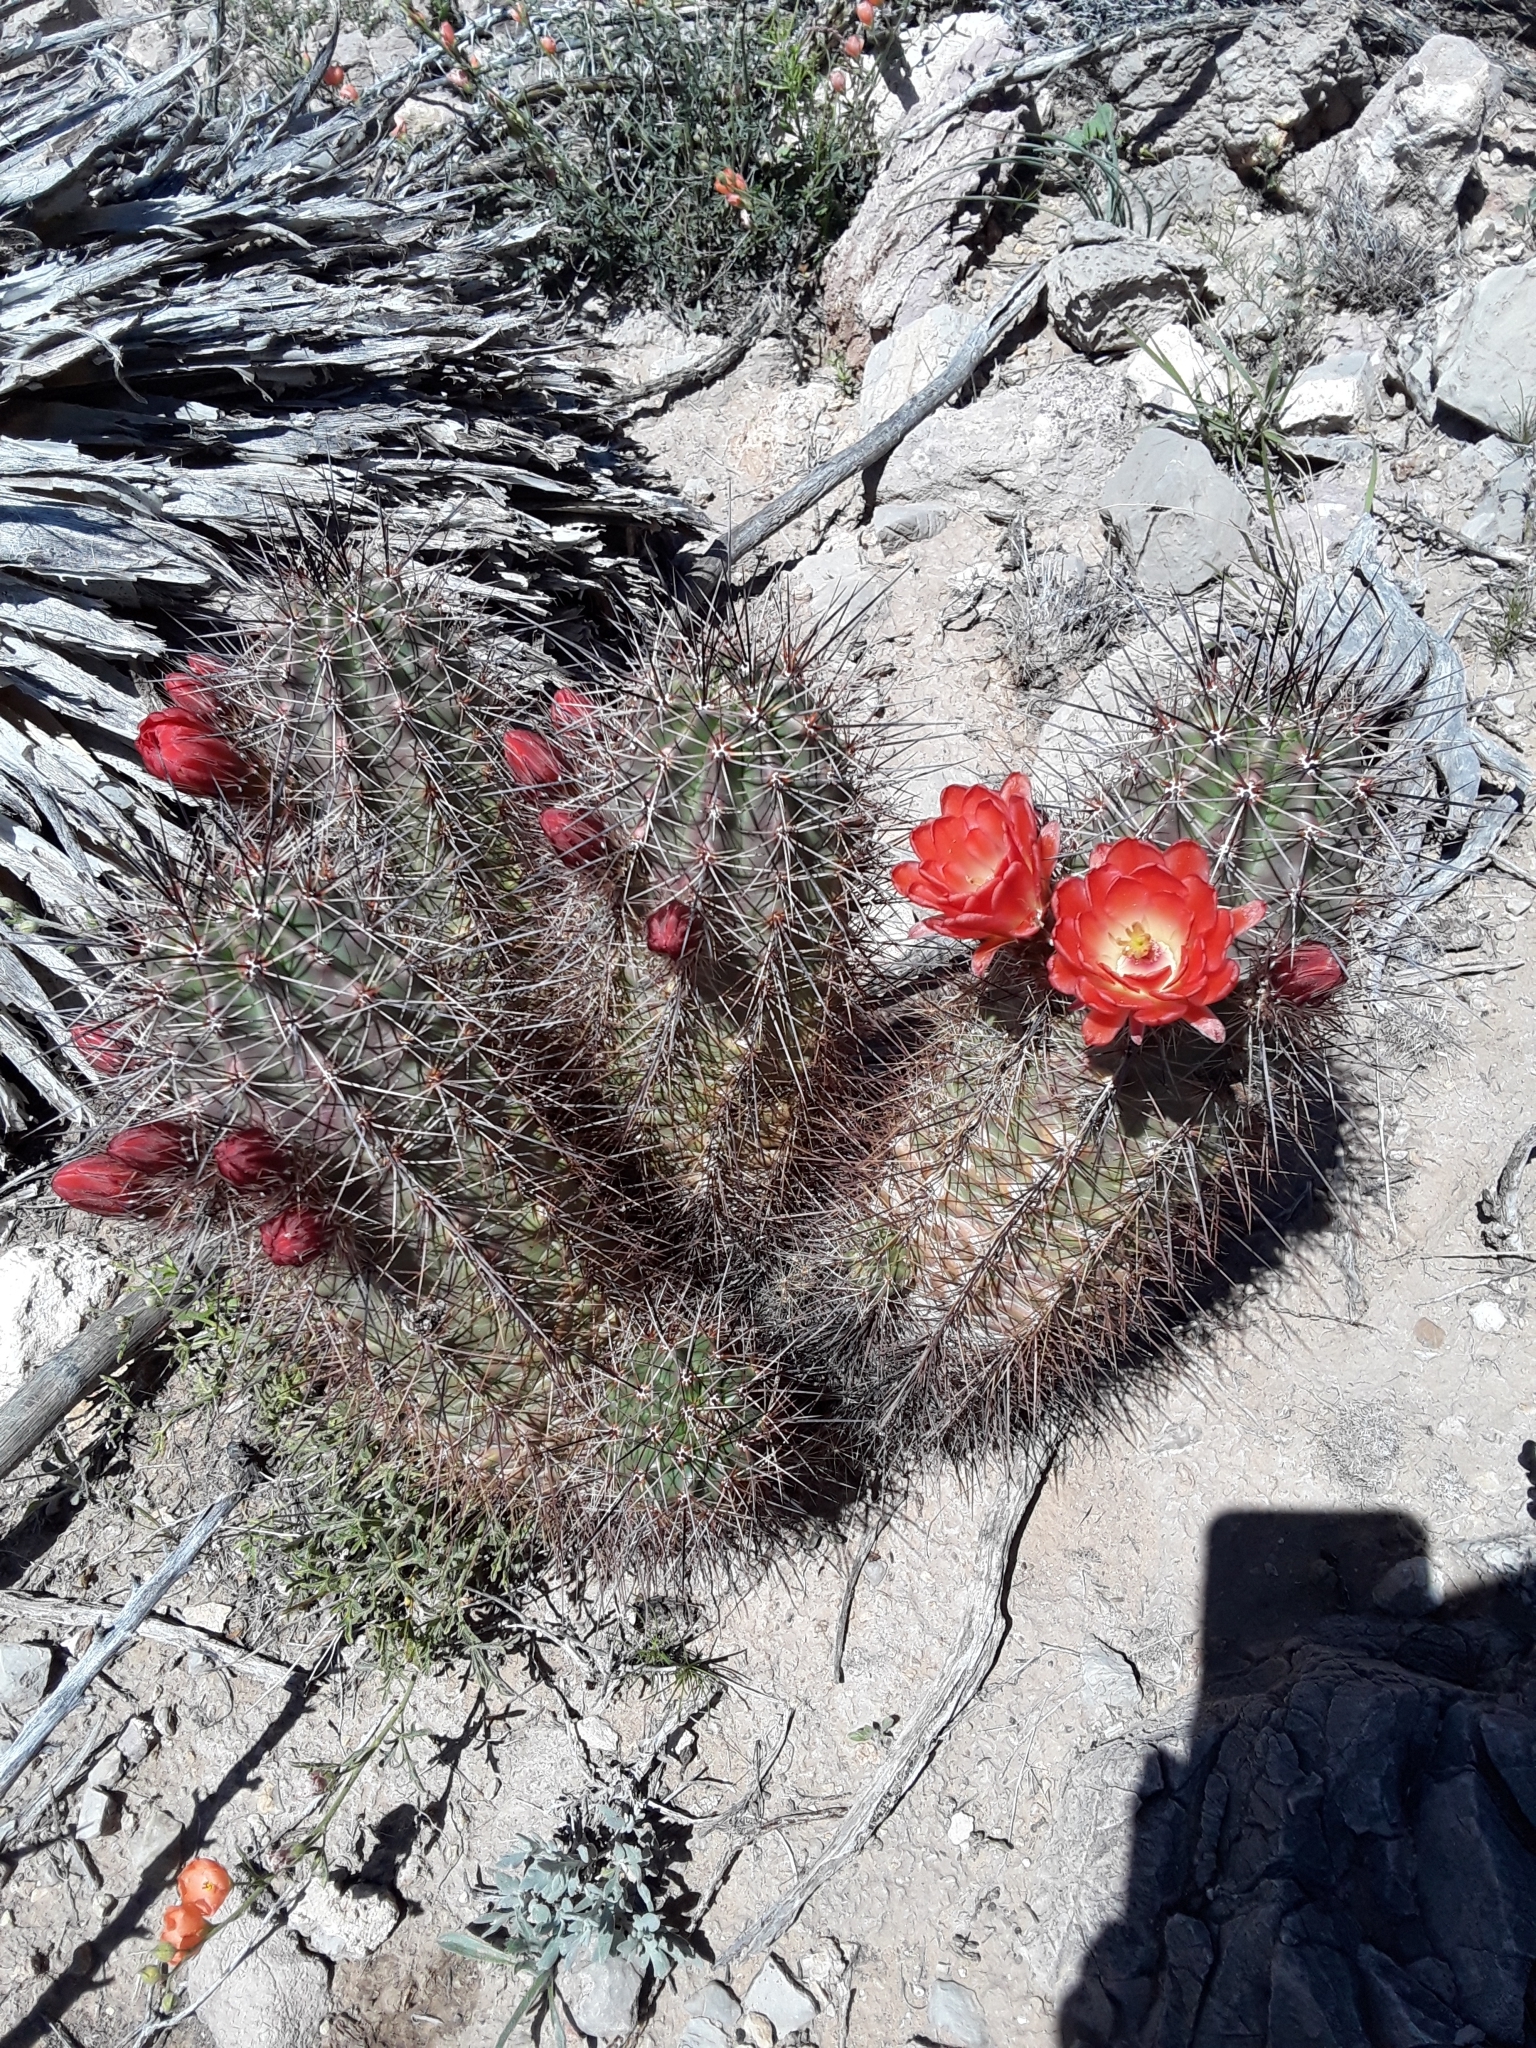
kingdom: Plantae
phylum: Tracheophyta
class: Magnoliopsida
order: Caryophyllales
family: Cactaceae
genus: Echinocereus
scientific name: Echinocereus coccineus
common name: Scarlet hedgehog cactus
